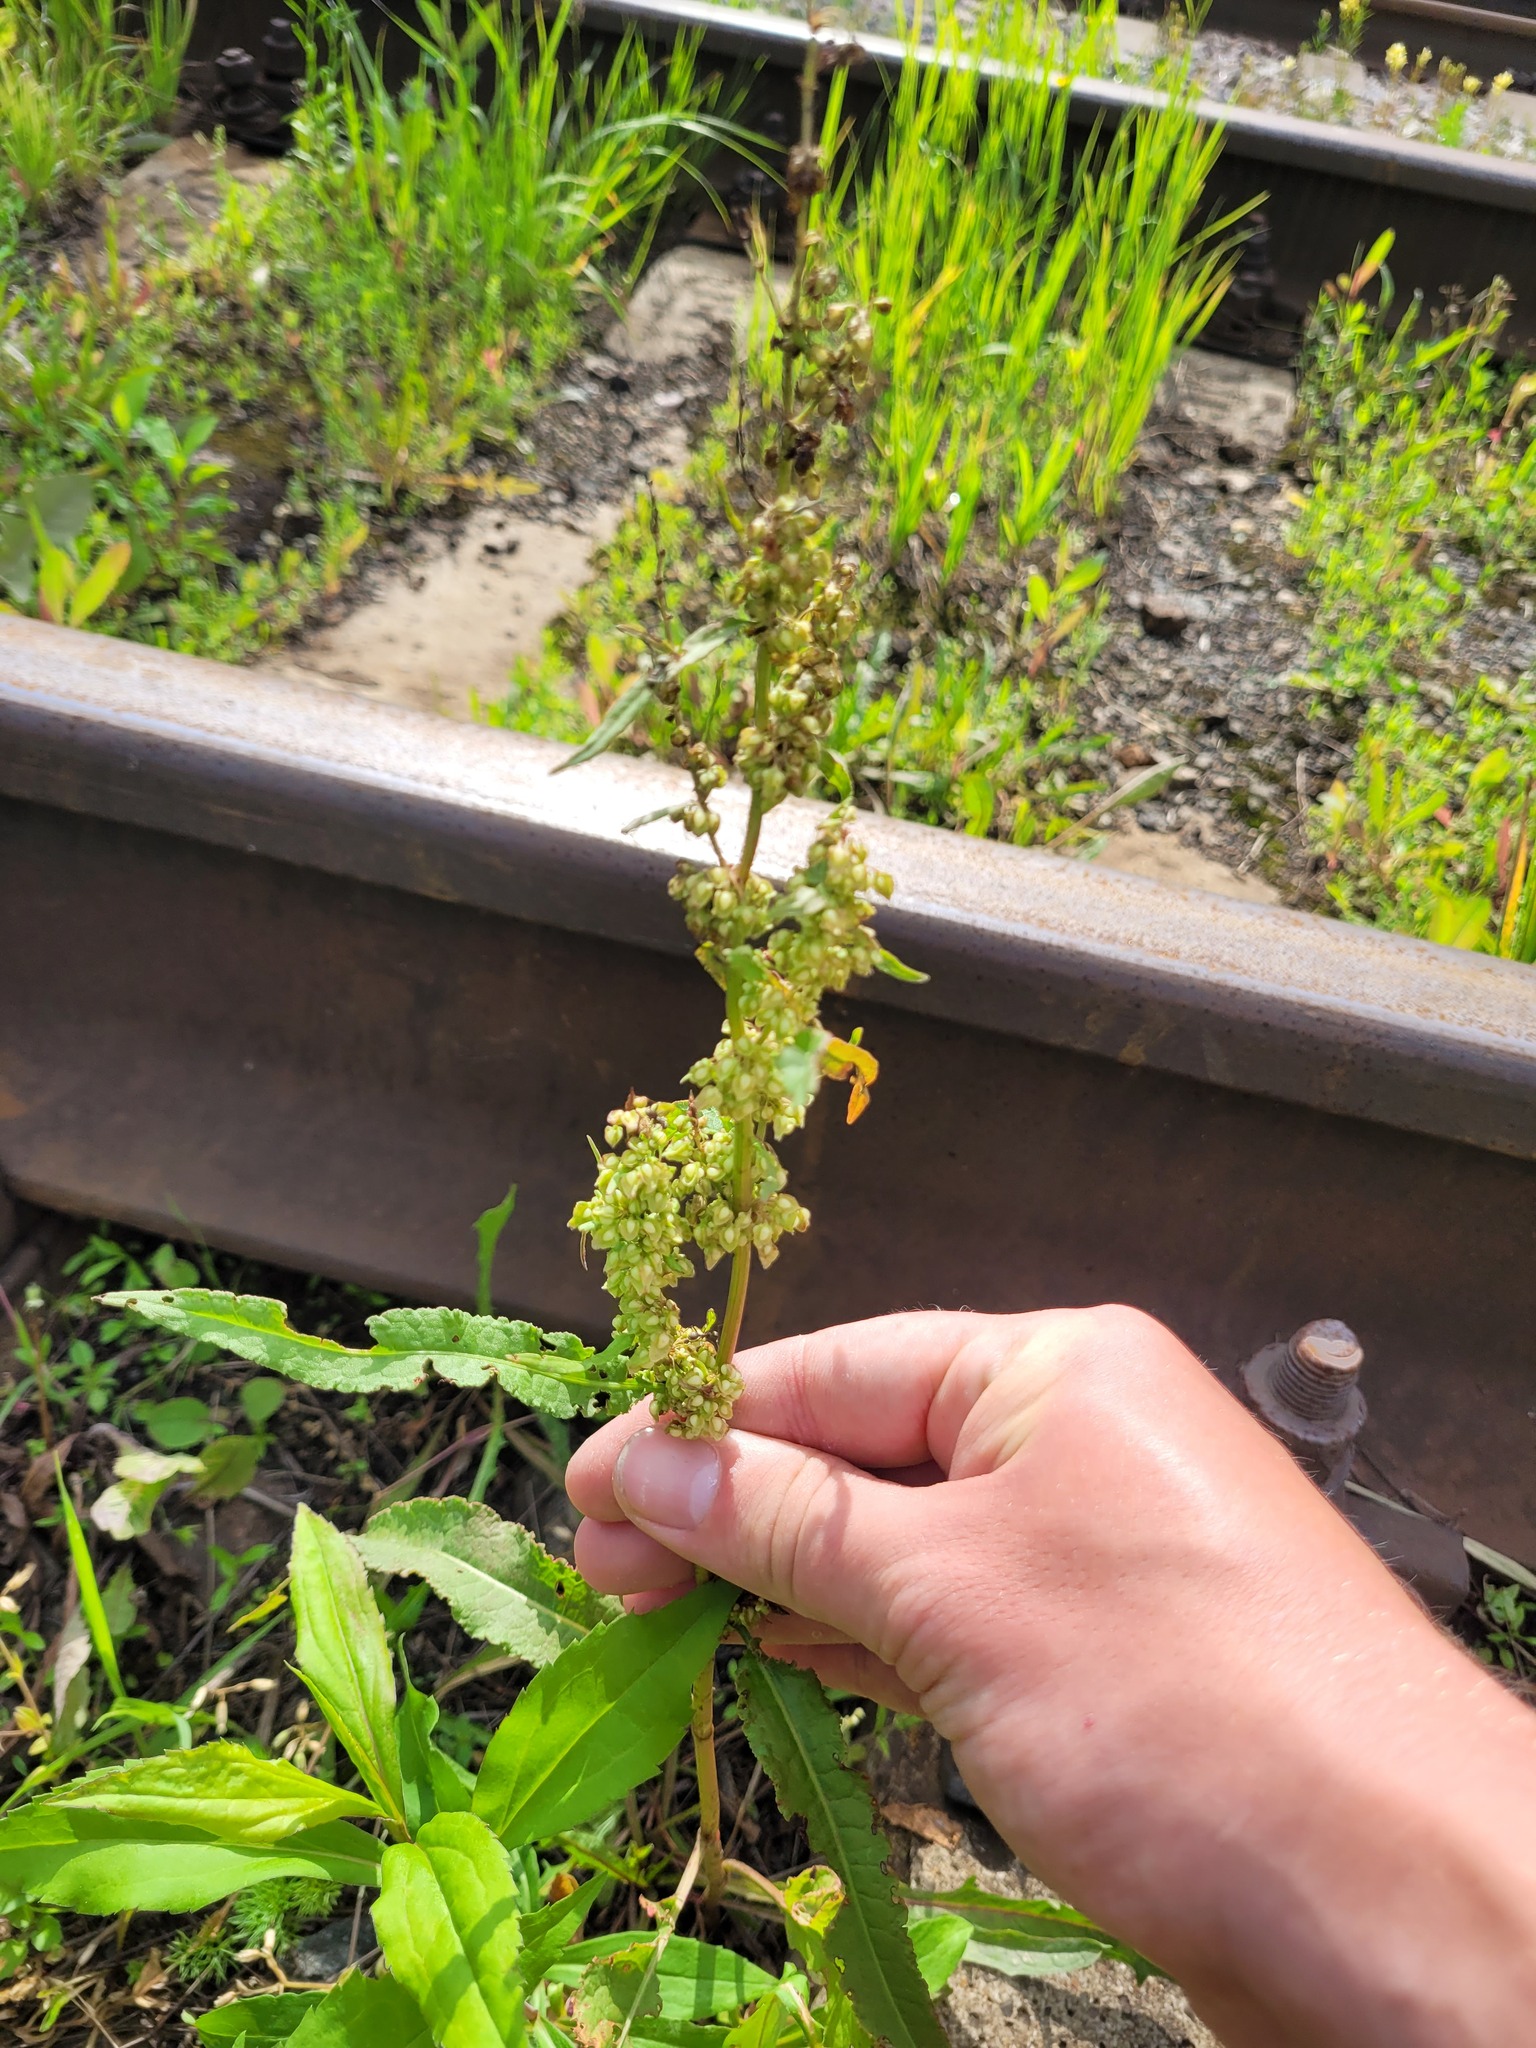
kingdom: Plantae
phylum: Tracheophyta
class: Magnoliopsida
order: Caryophyllales
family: Polygonaceae
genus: Rumex
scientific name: Rumex crispus
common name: Curled dock
